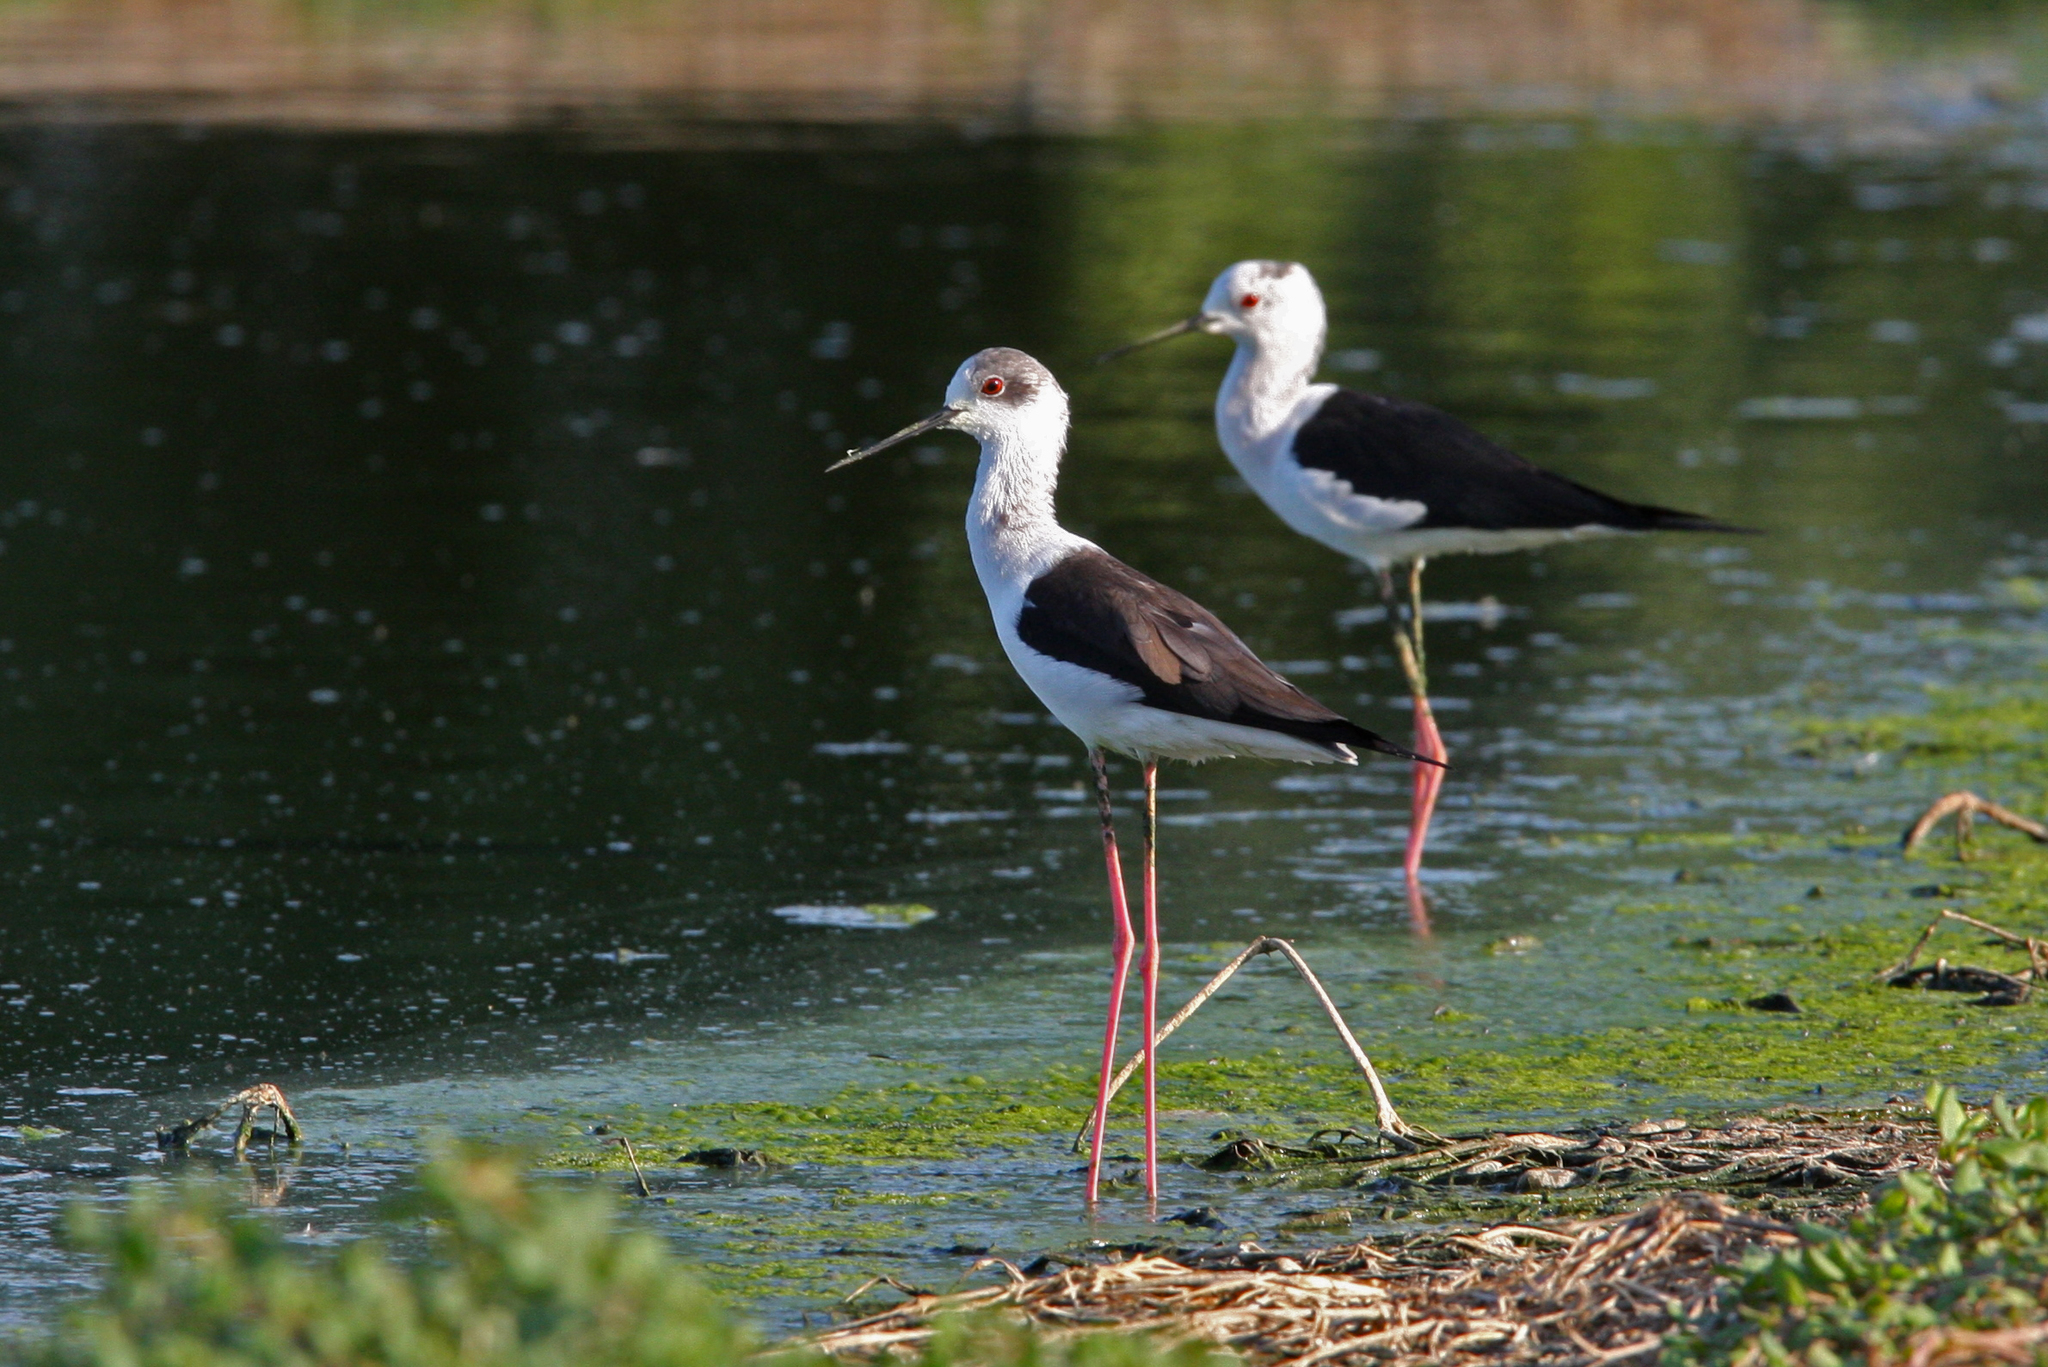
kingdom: Animalia
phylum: Chordata
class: Aves
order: Charadriiformes
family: Recurvirostridae
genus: Himantopus
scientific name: Himantopus himantopus
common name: Black-winged stilt
